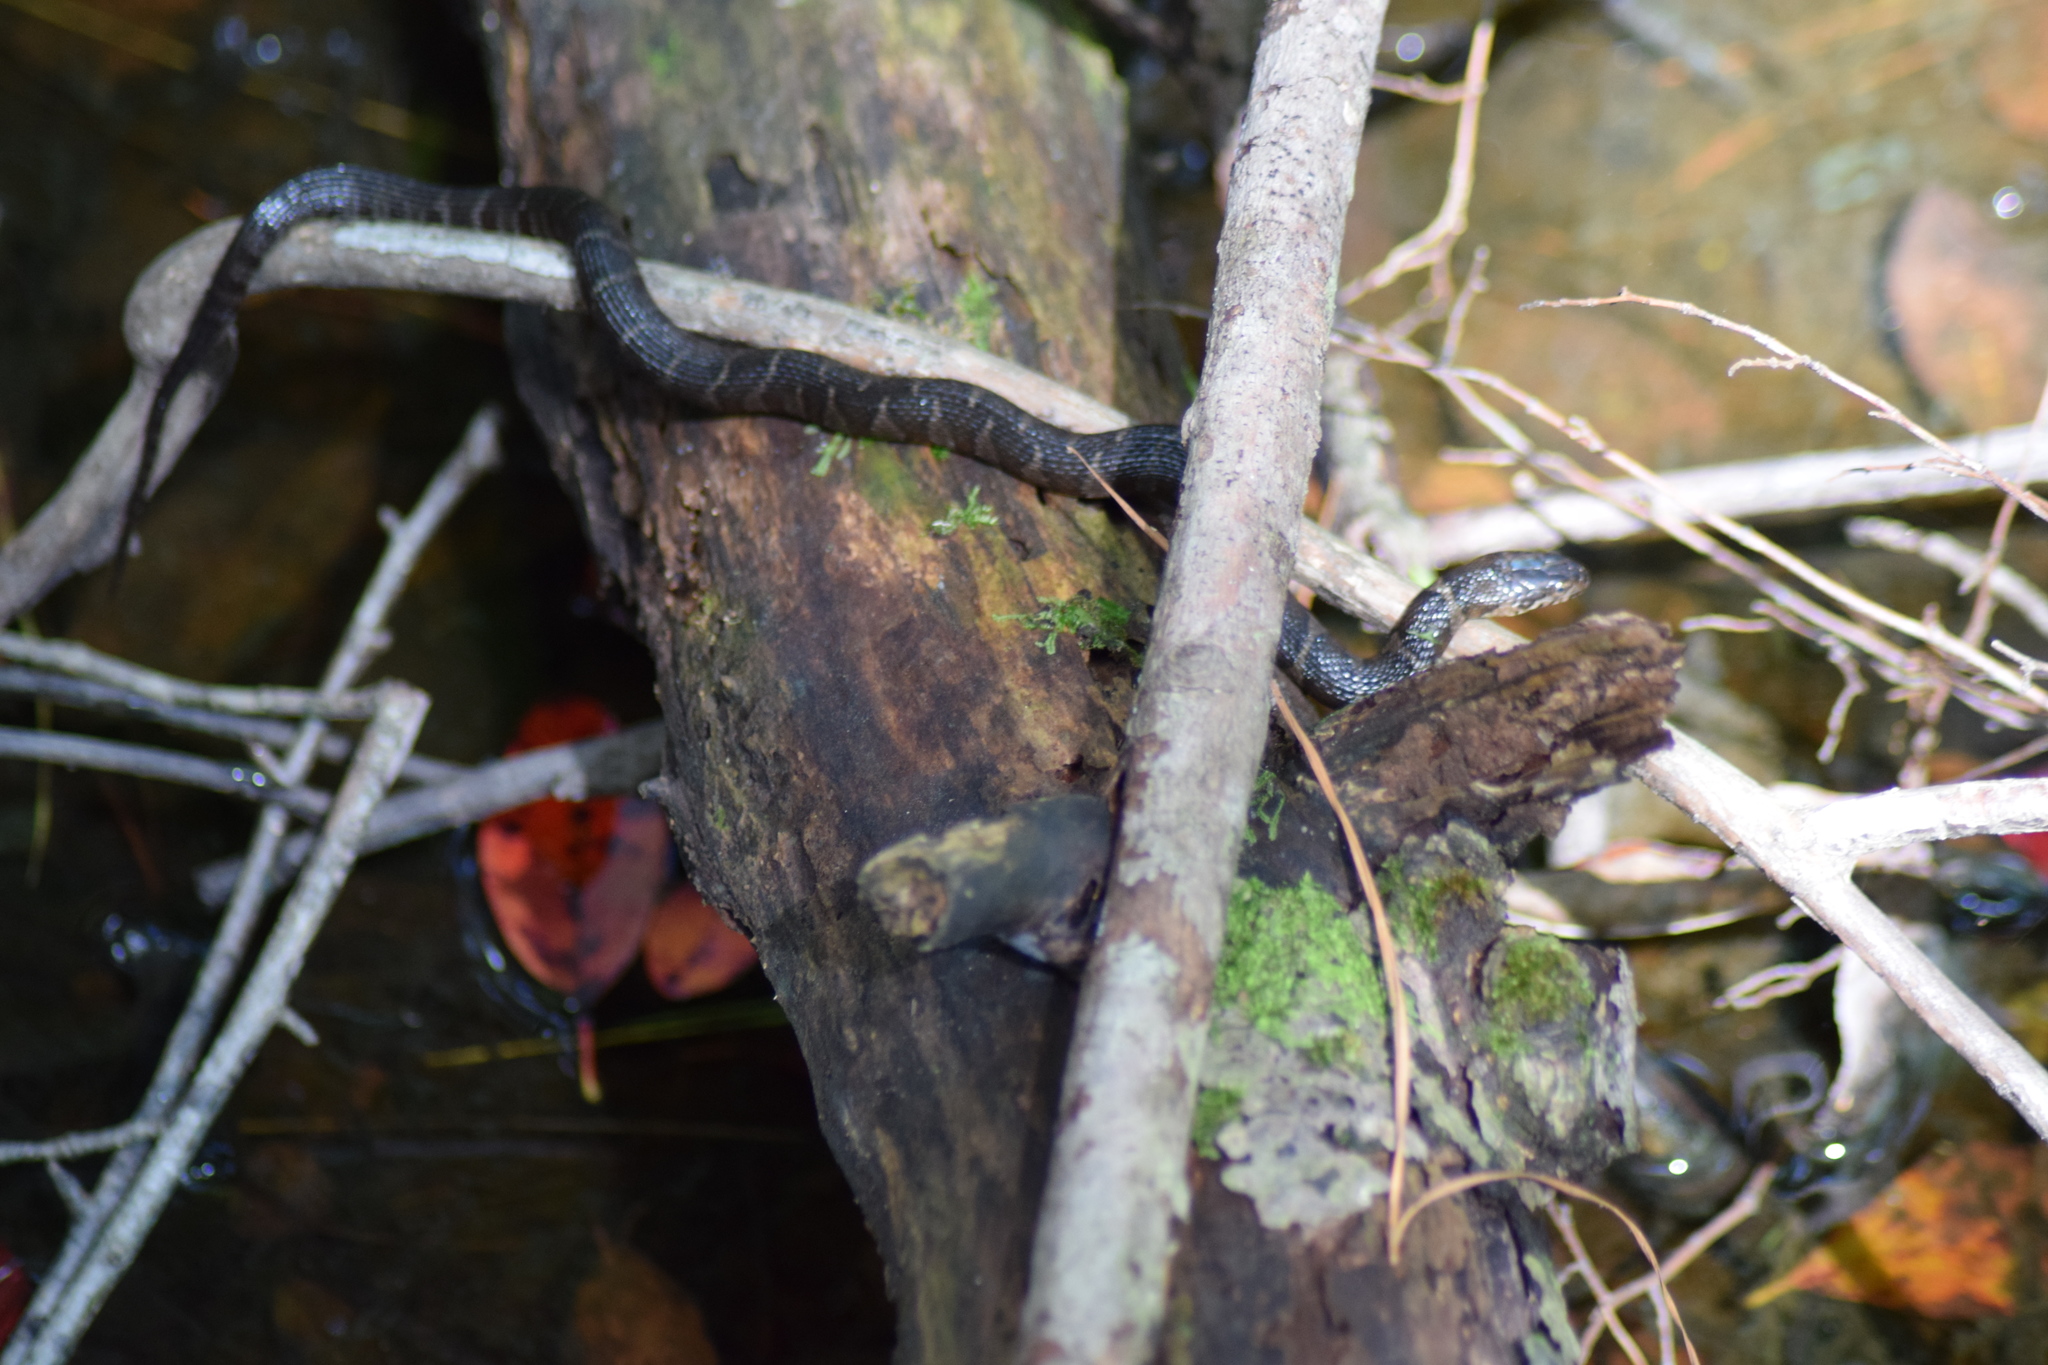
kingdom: Animalia
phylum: Chordata
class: Squamata
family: Colubridae
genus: Nerodia
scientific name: Nerodia sipedon
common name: Northern water snake
